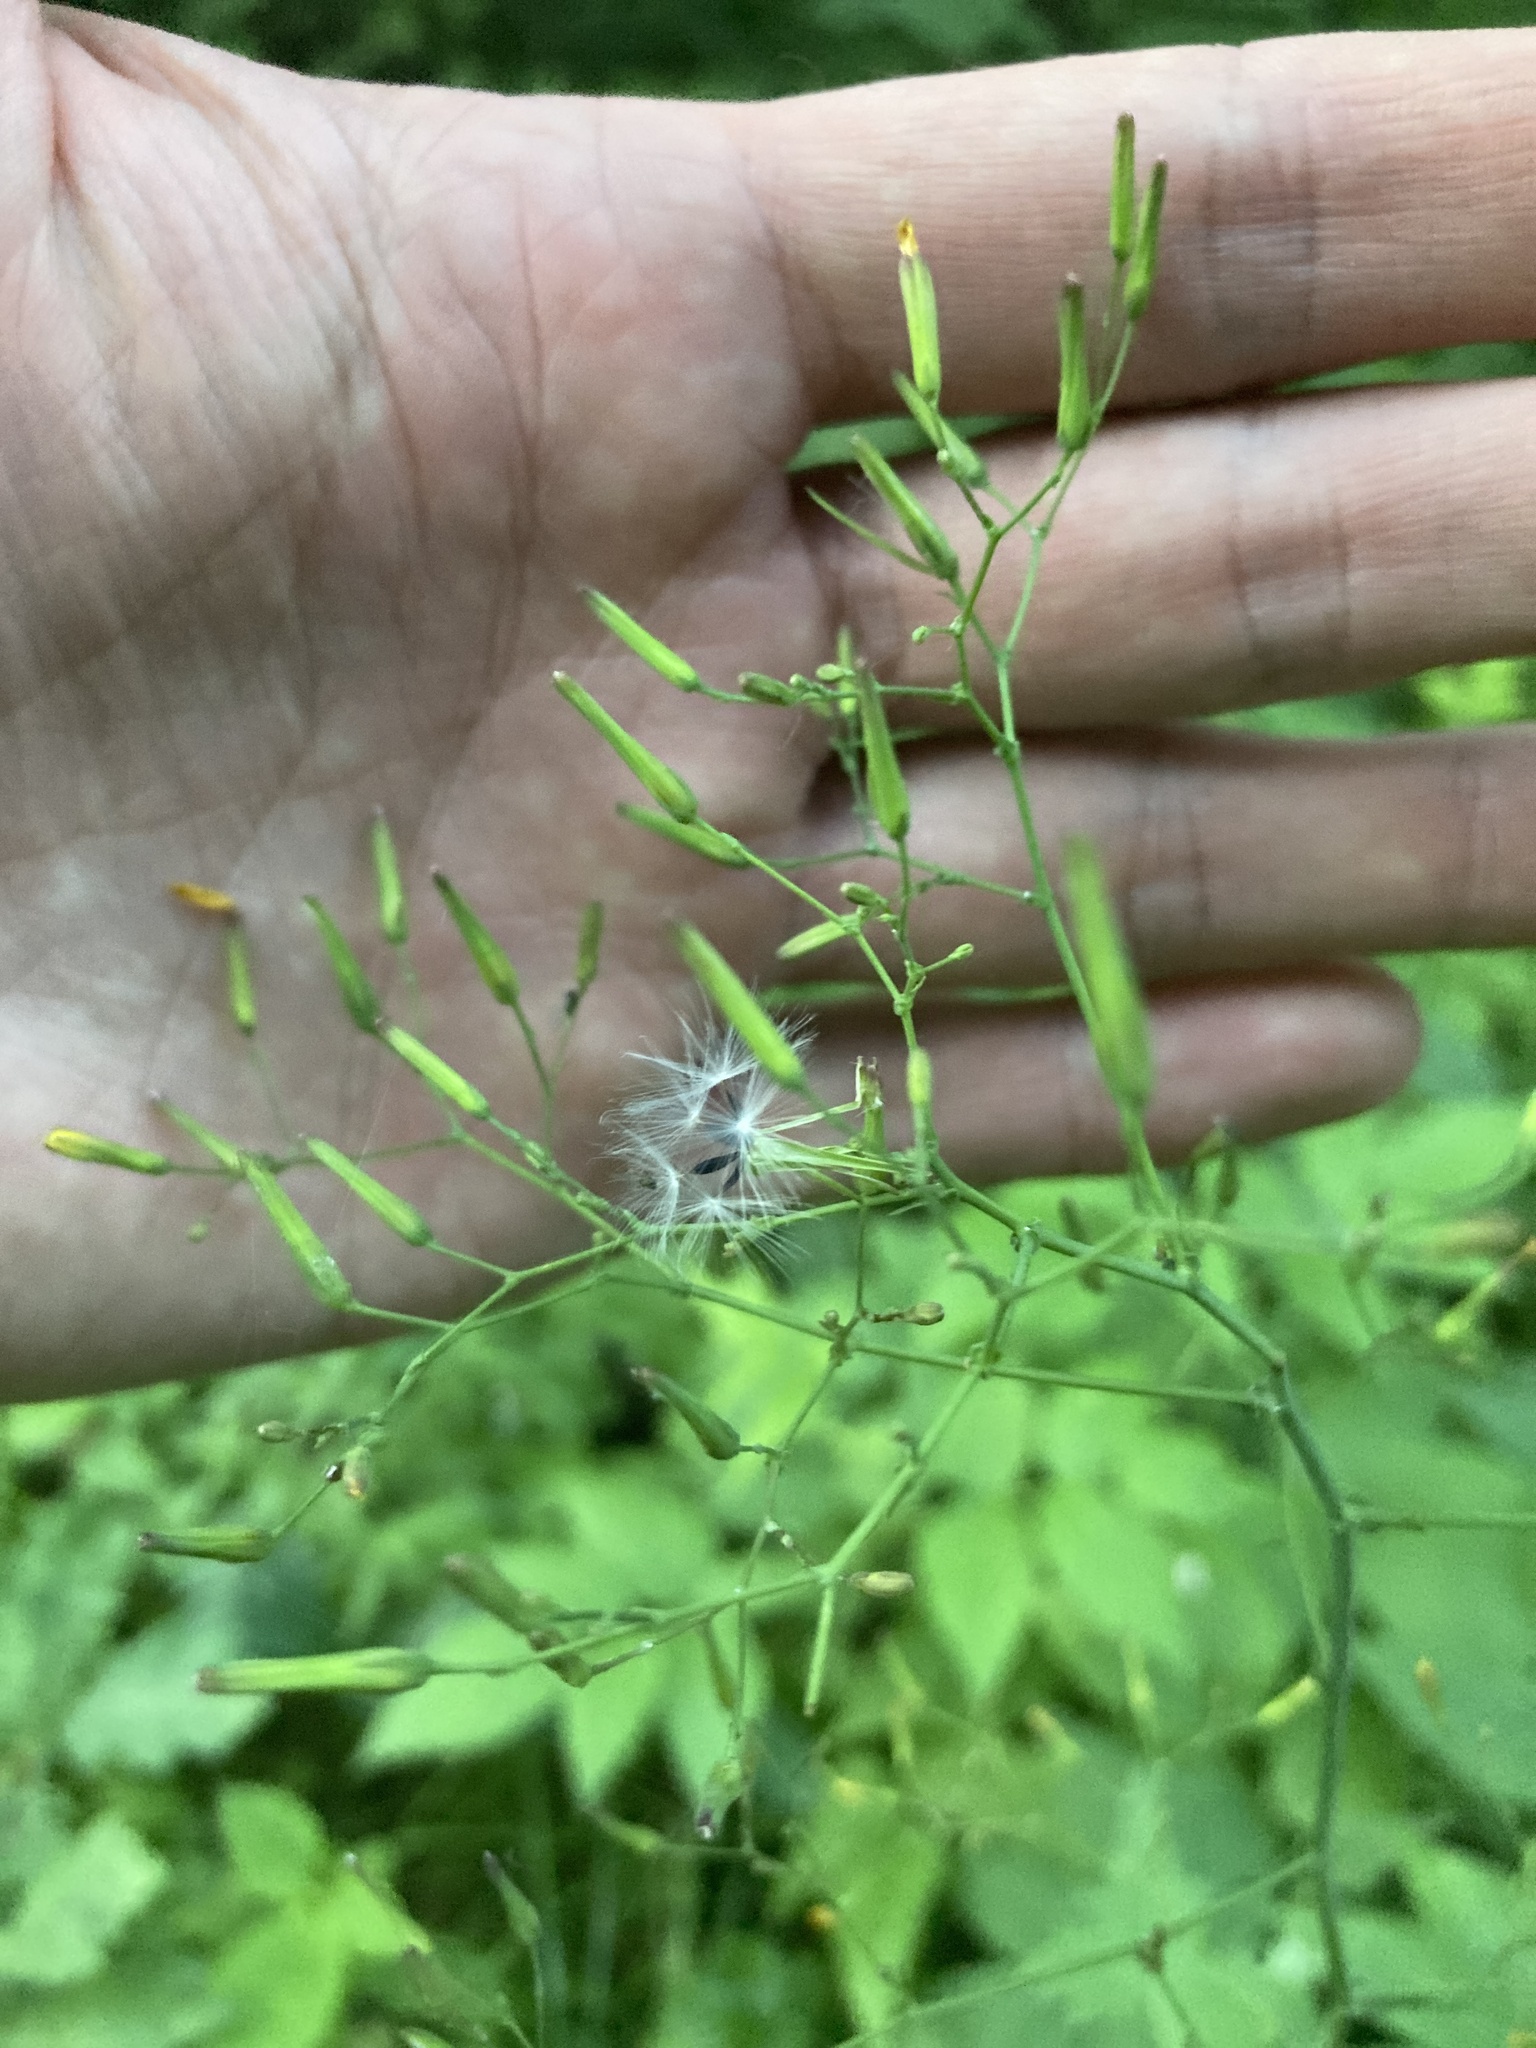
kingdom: Plantae
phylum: Tracheophyta
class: Magnoliopsida
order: Asterales
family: Asteraceae
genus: Mycelis
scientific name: Mycelis muralis
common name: Wall lettuce
